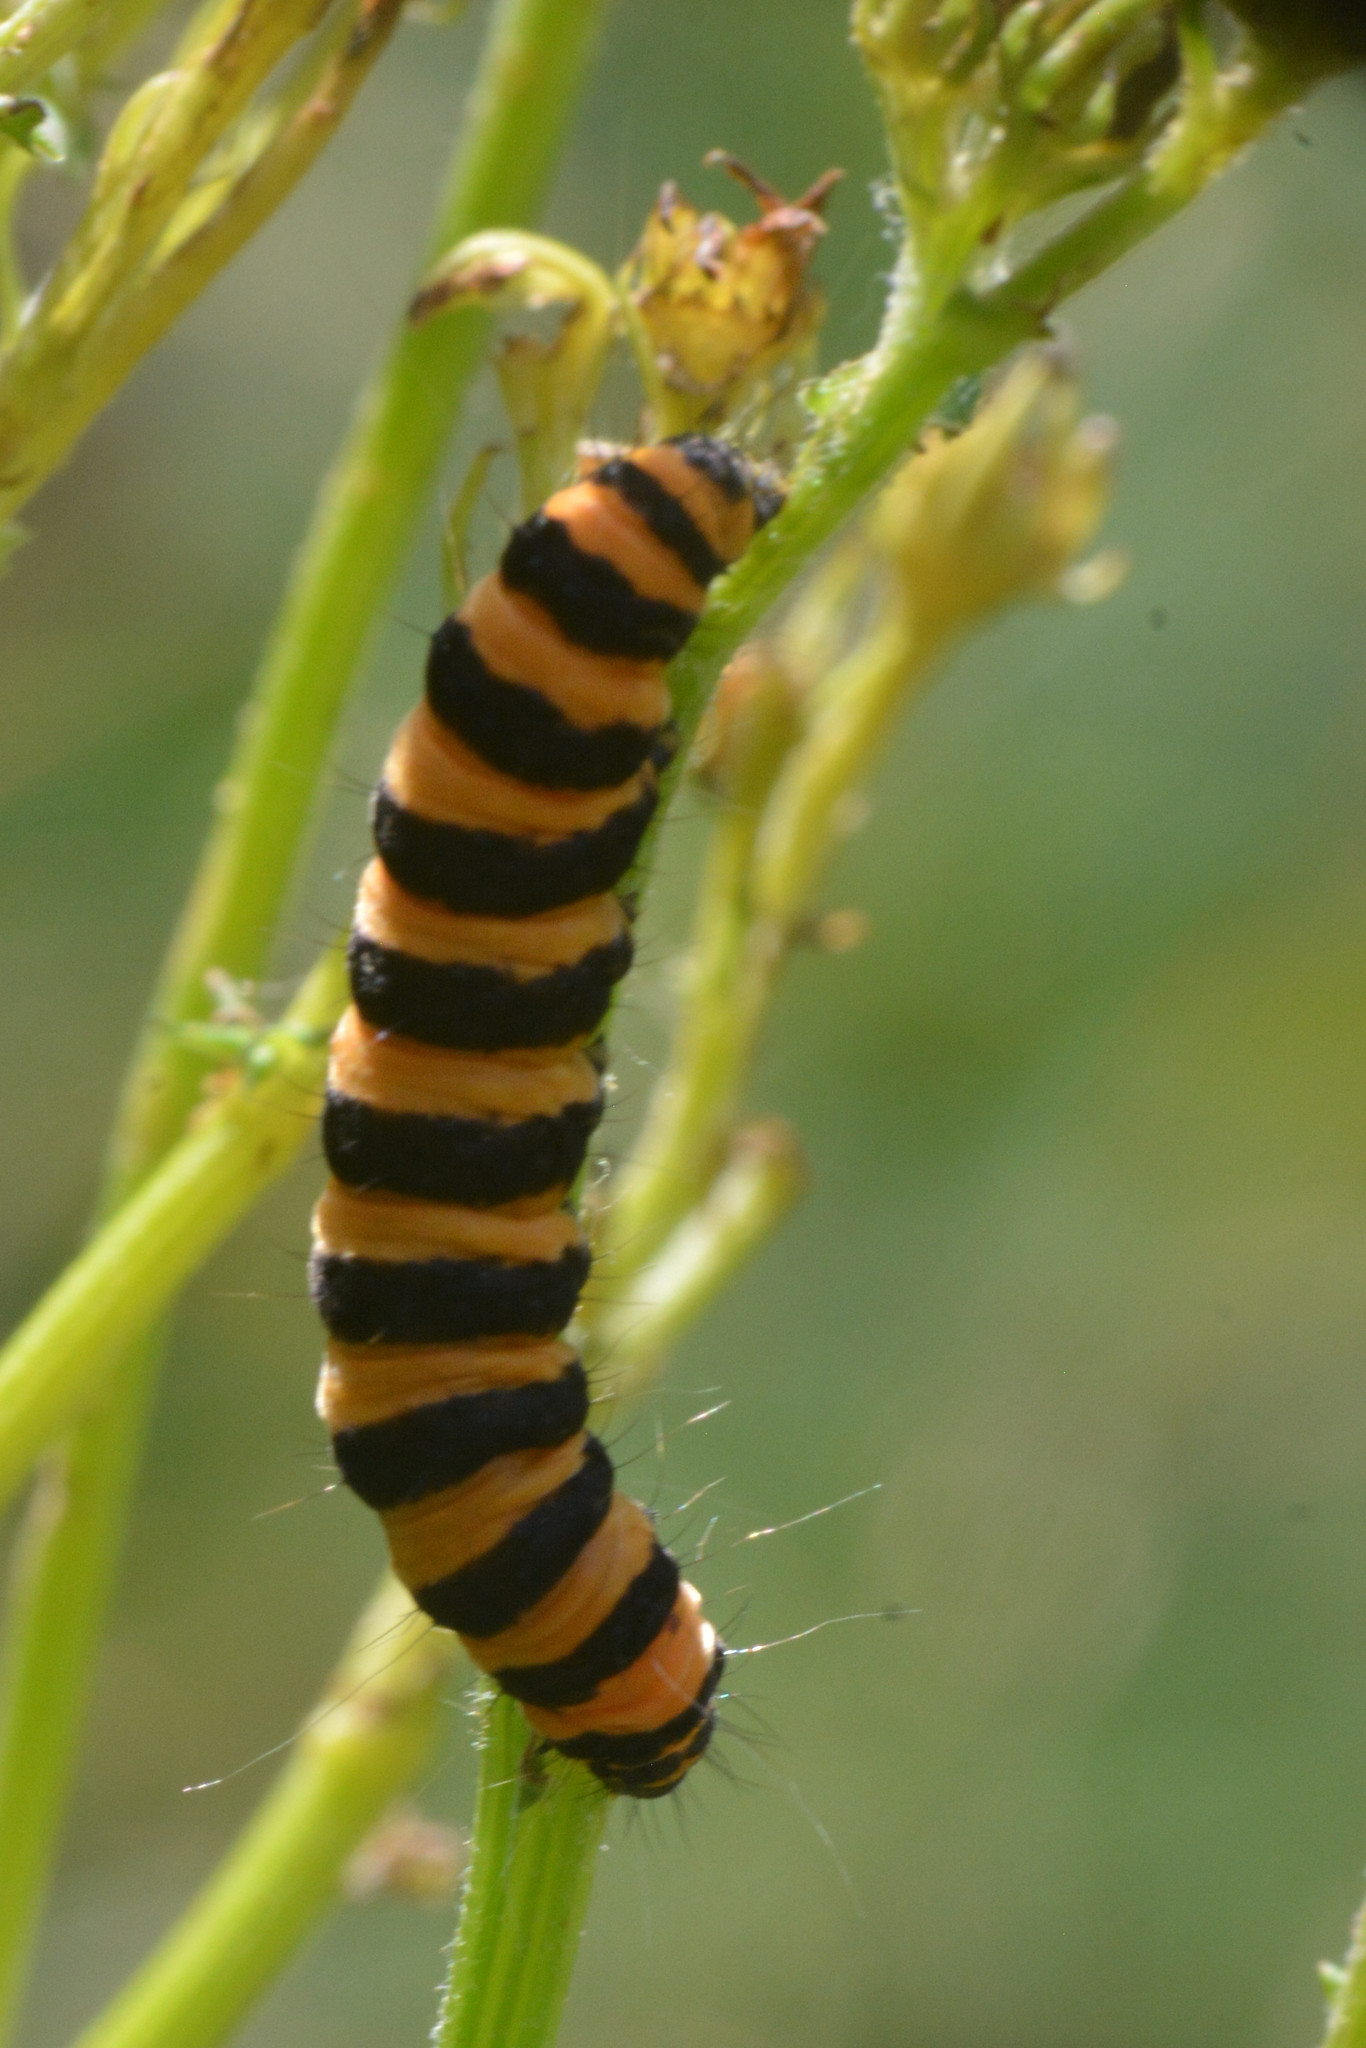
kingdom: Animalia
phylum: Arthropoda
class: Insecta
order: Lepidoptera
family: Erebidae
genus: Tyria
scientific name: Tyria jacobaeae
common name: Cinnabar
